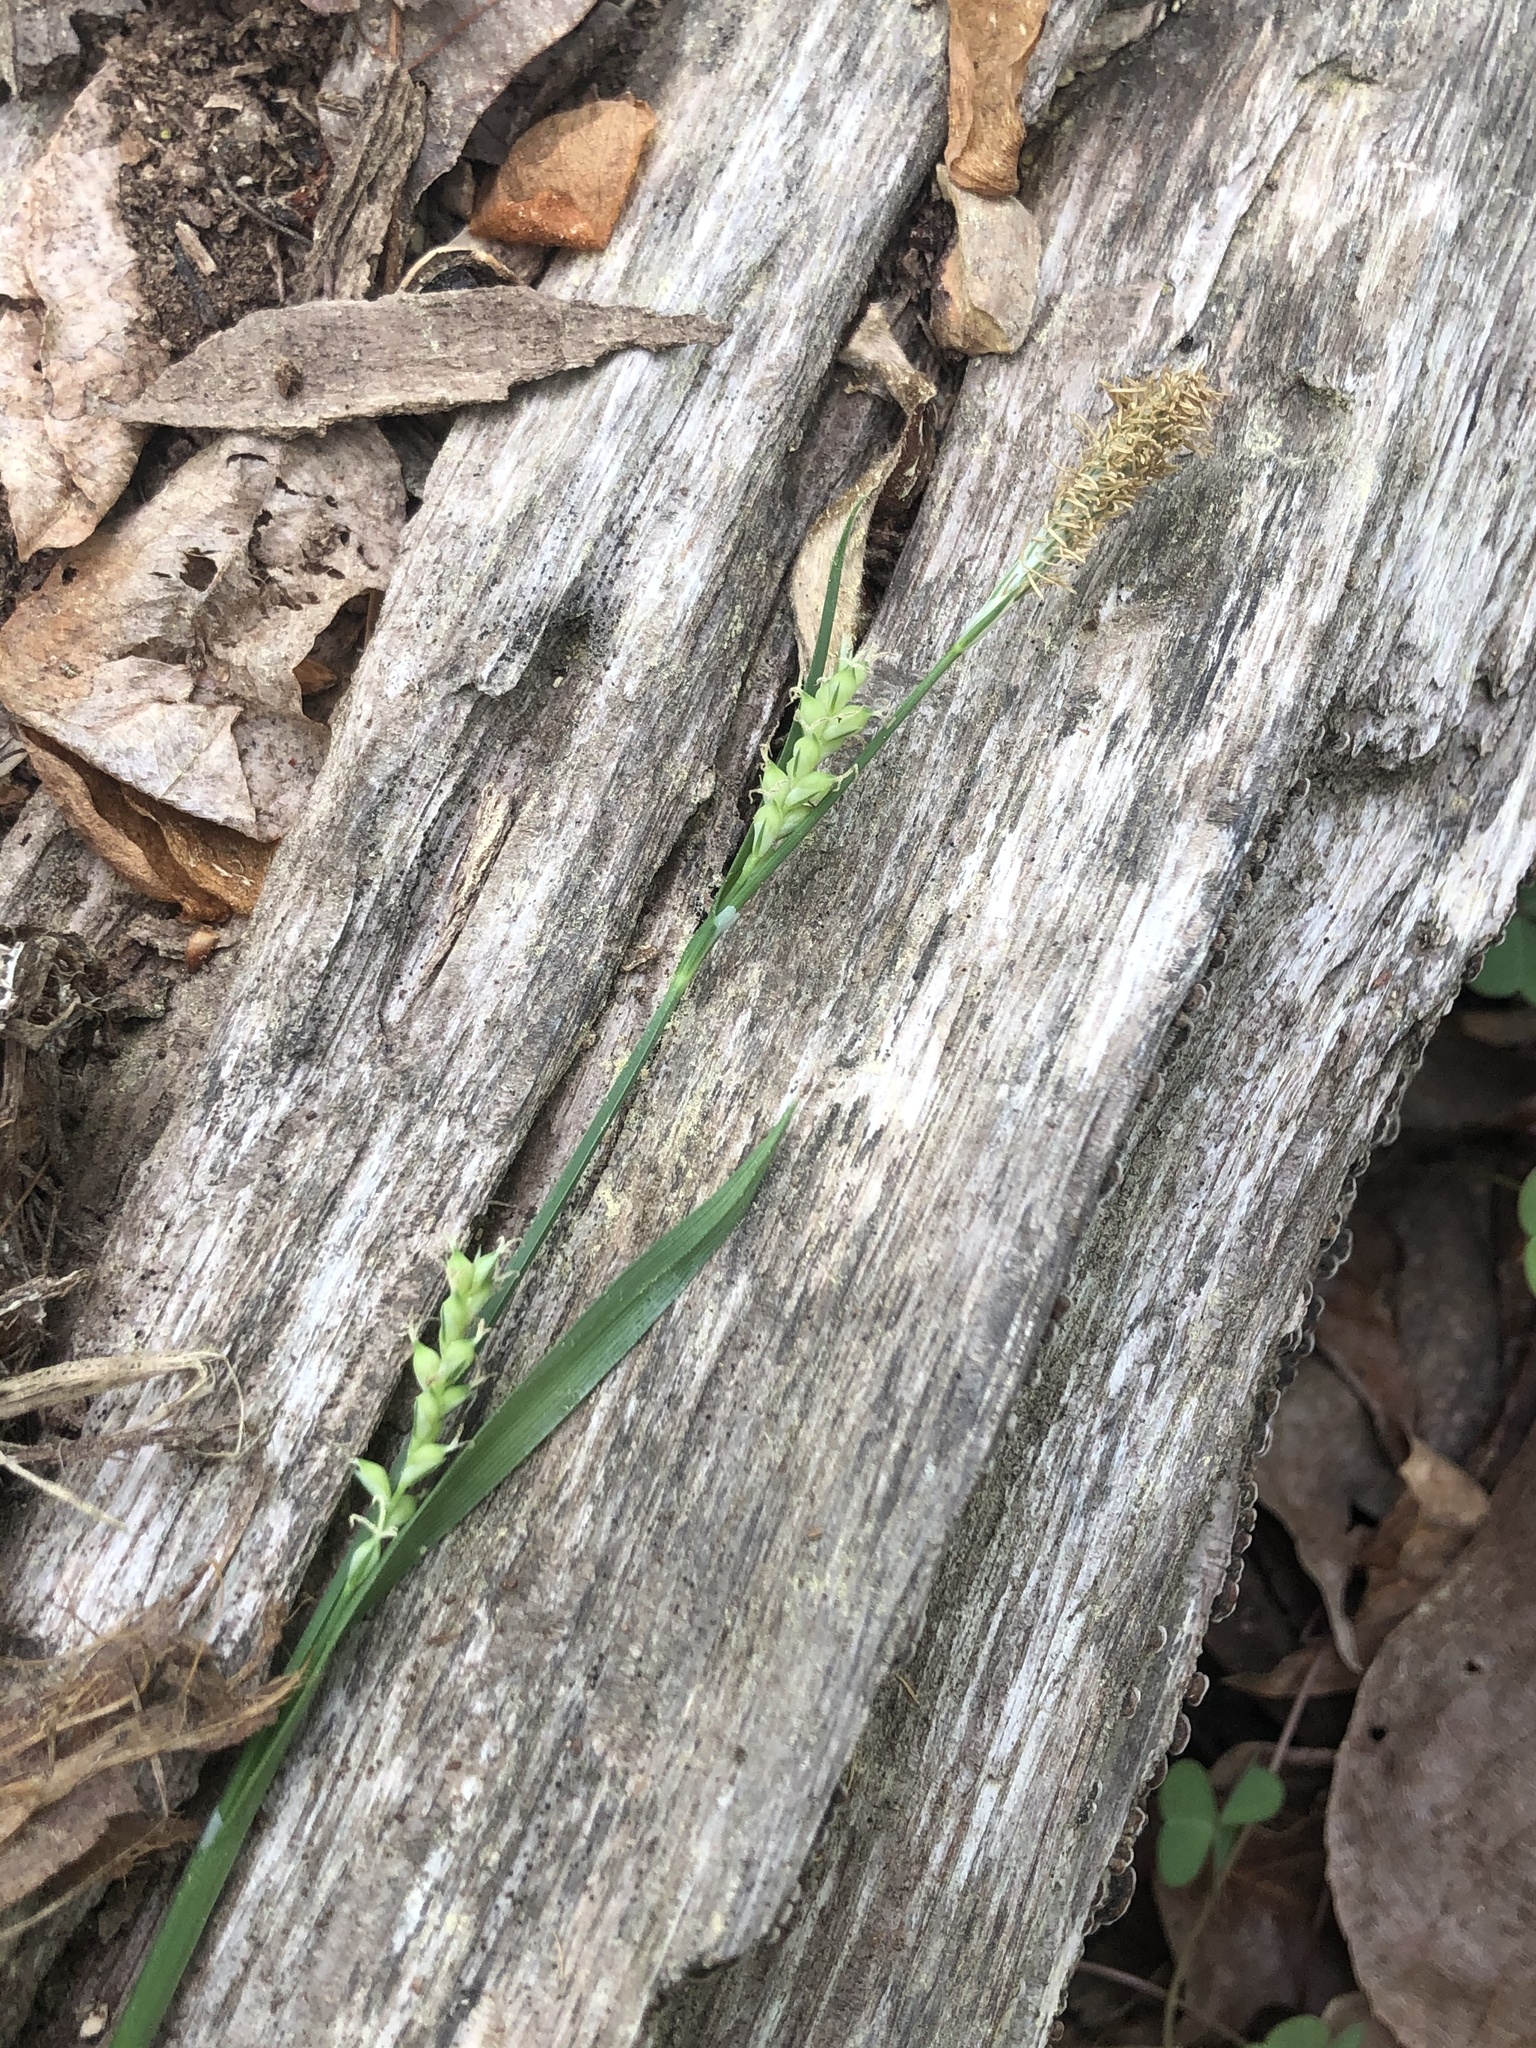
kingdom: Plantae
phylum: Tracheophyta
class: Liliopsida
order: Poales
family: Cyperaceae
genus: Carex
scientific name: Carex laxiflora
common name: Beech wood sedge
